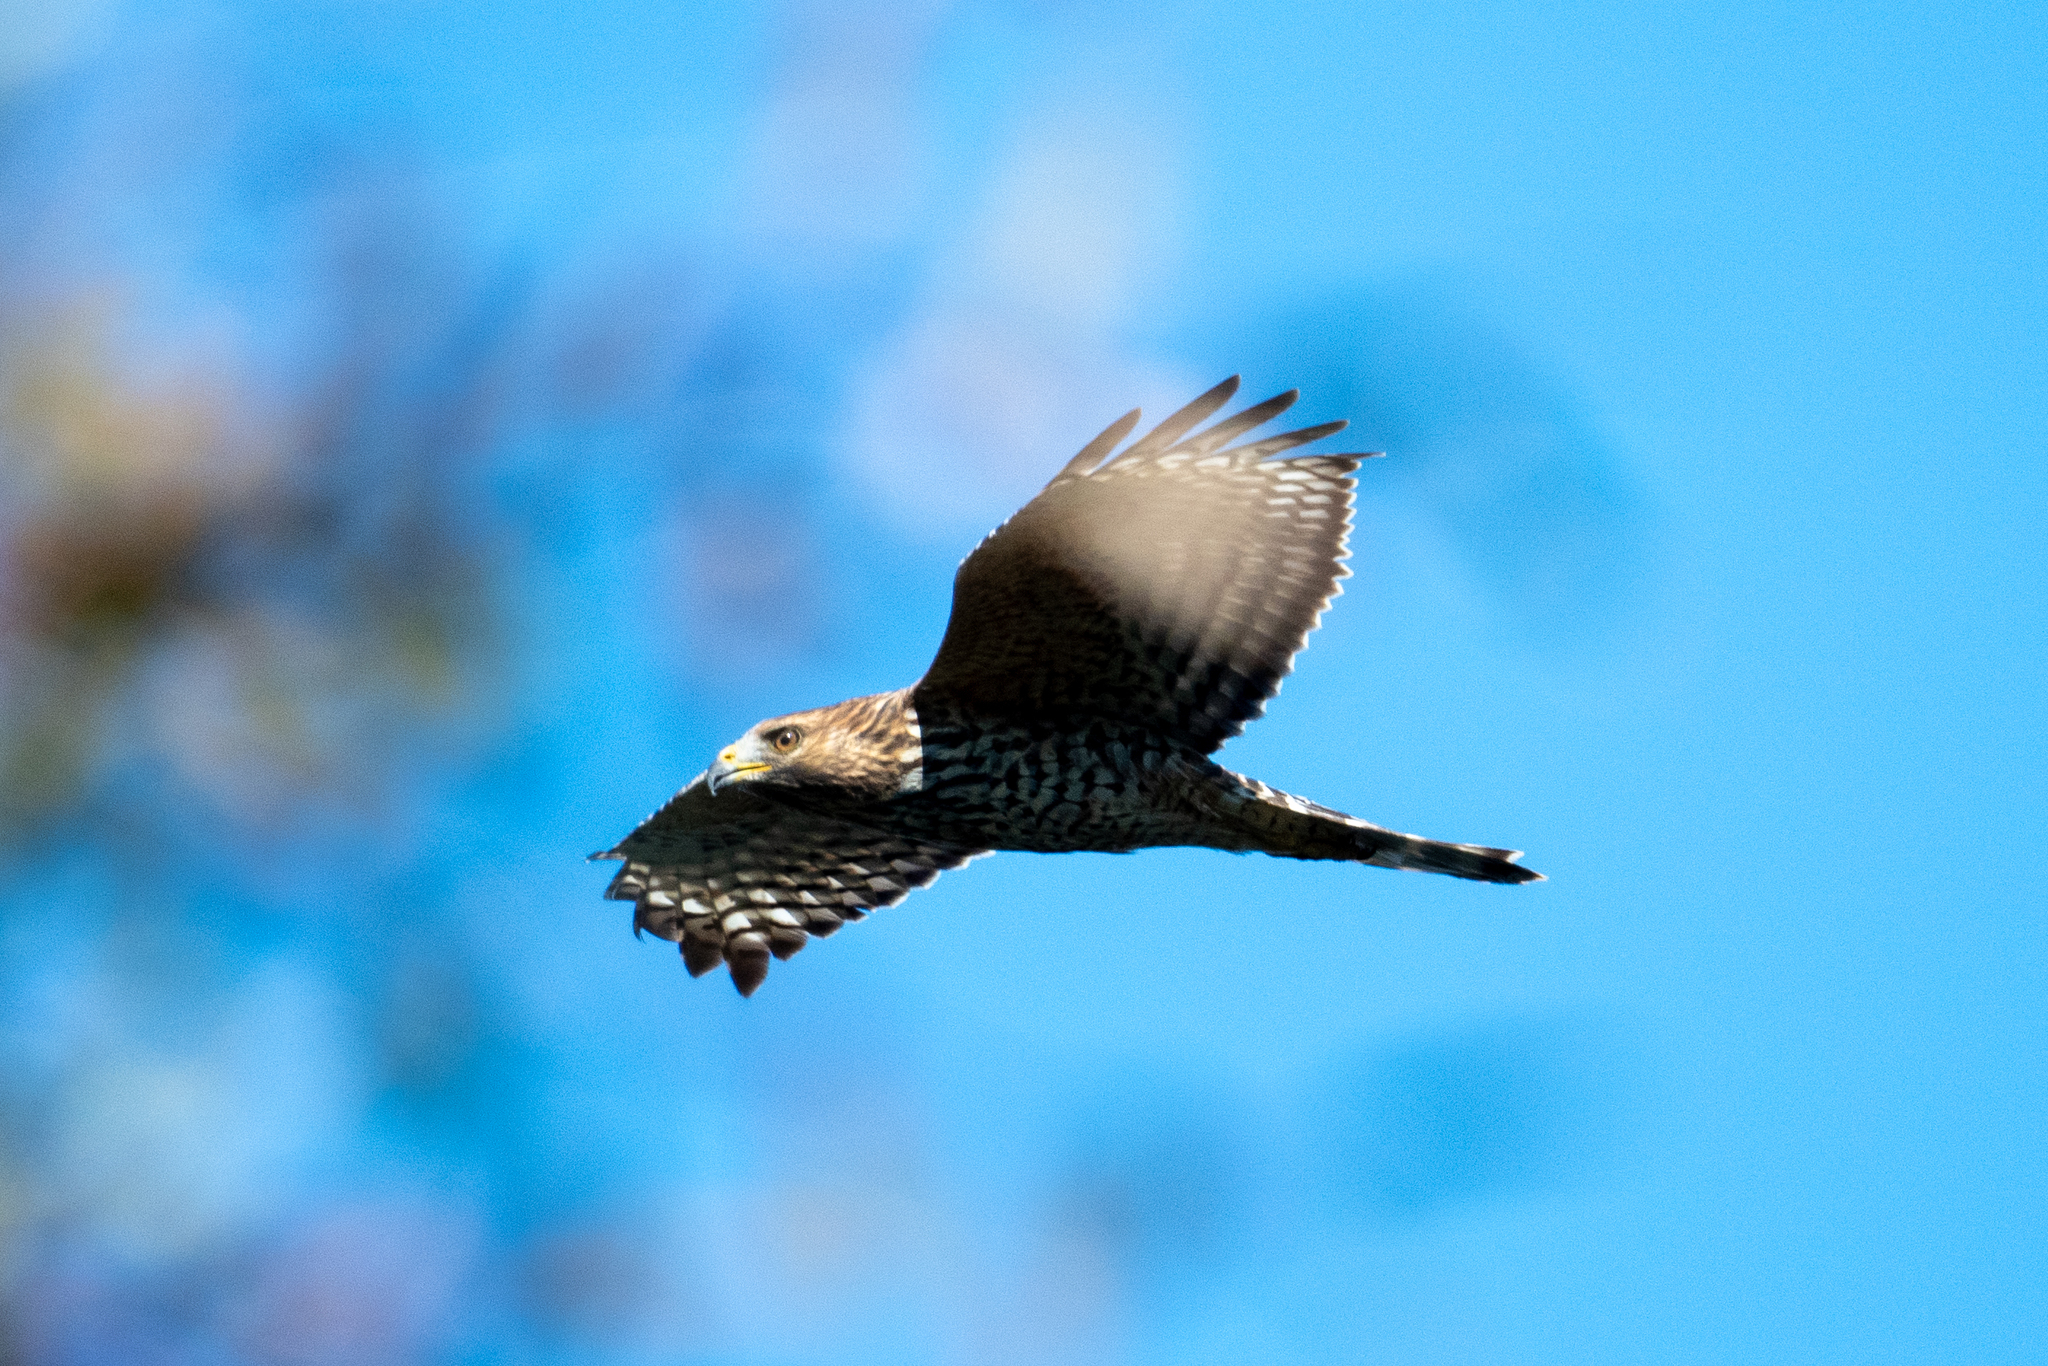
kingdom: Animalia
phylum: Chordata
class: Aves
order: Accipitriformes
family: Accipitridae
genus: Buteo
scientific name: Buteo lineatus
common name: Red-shouldered hawk
